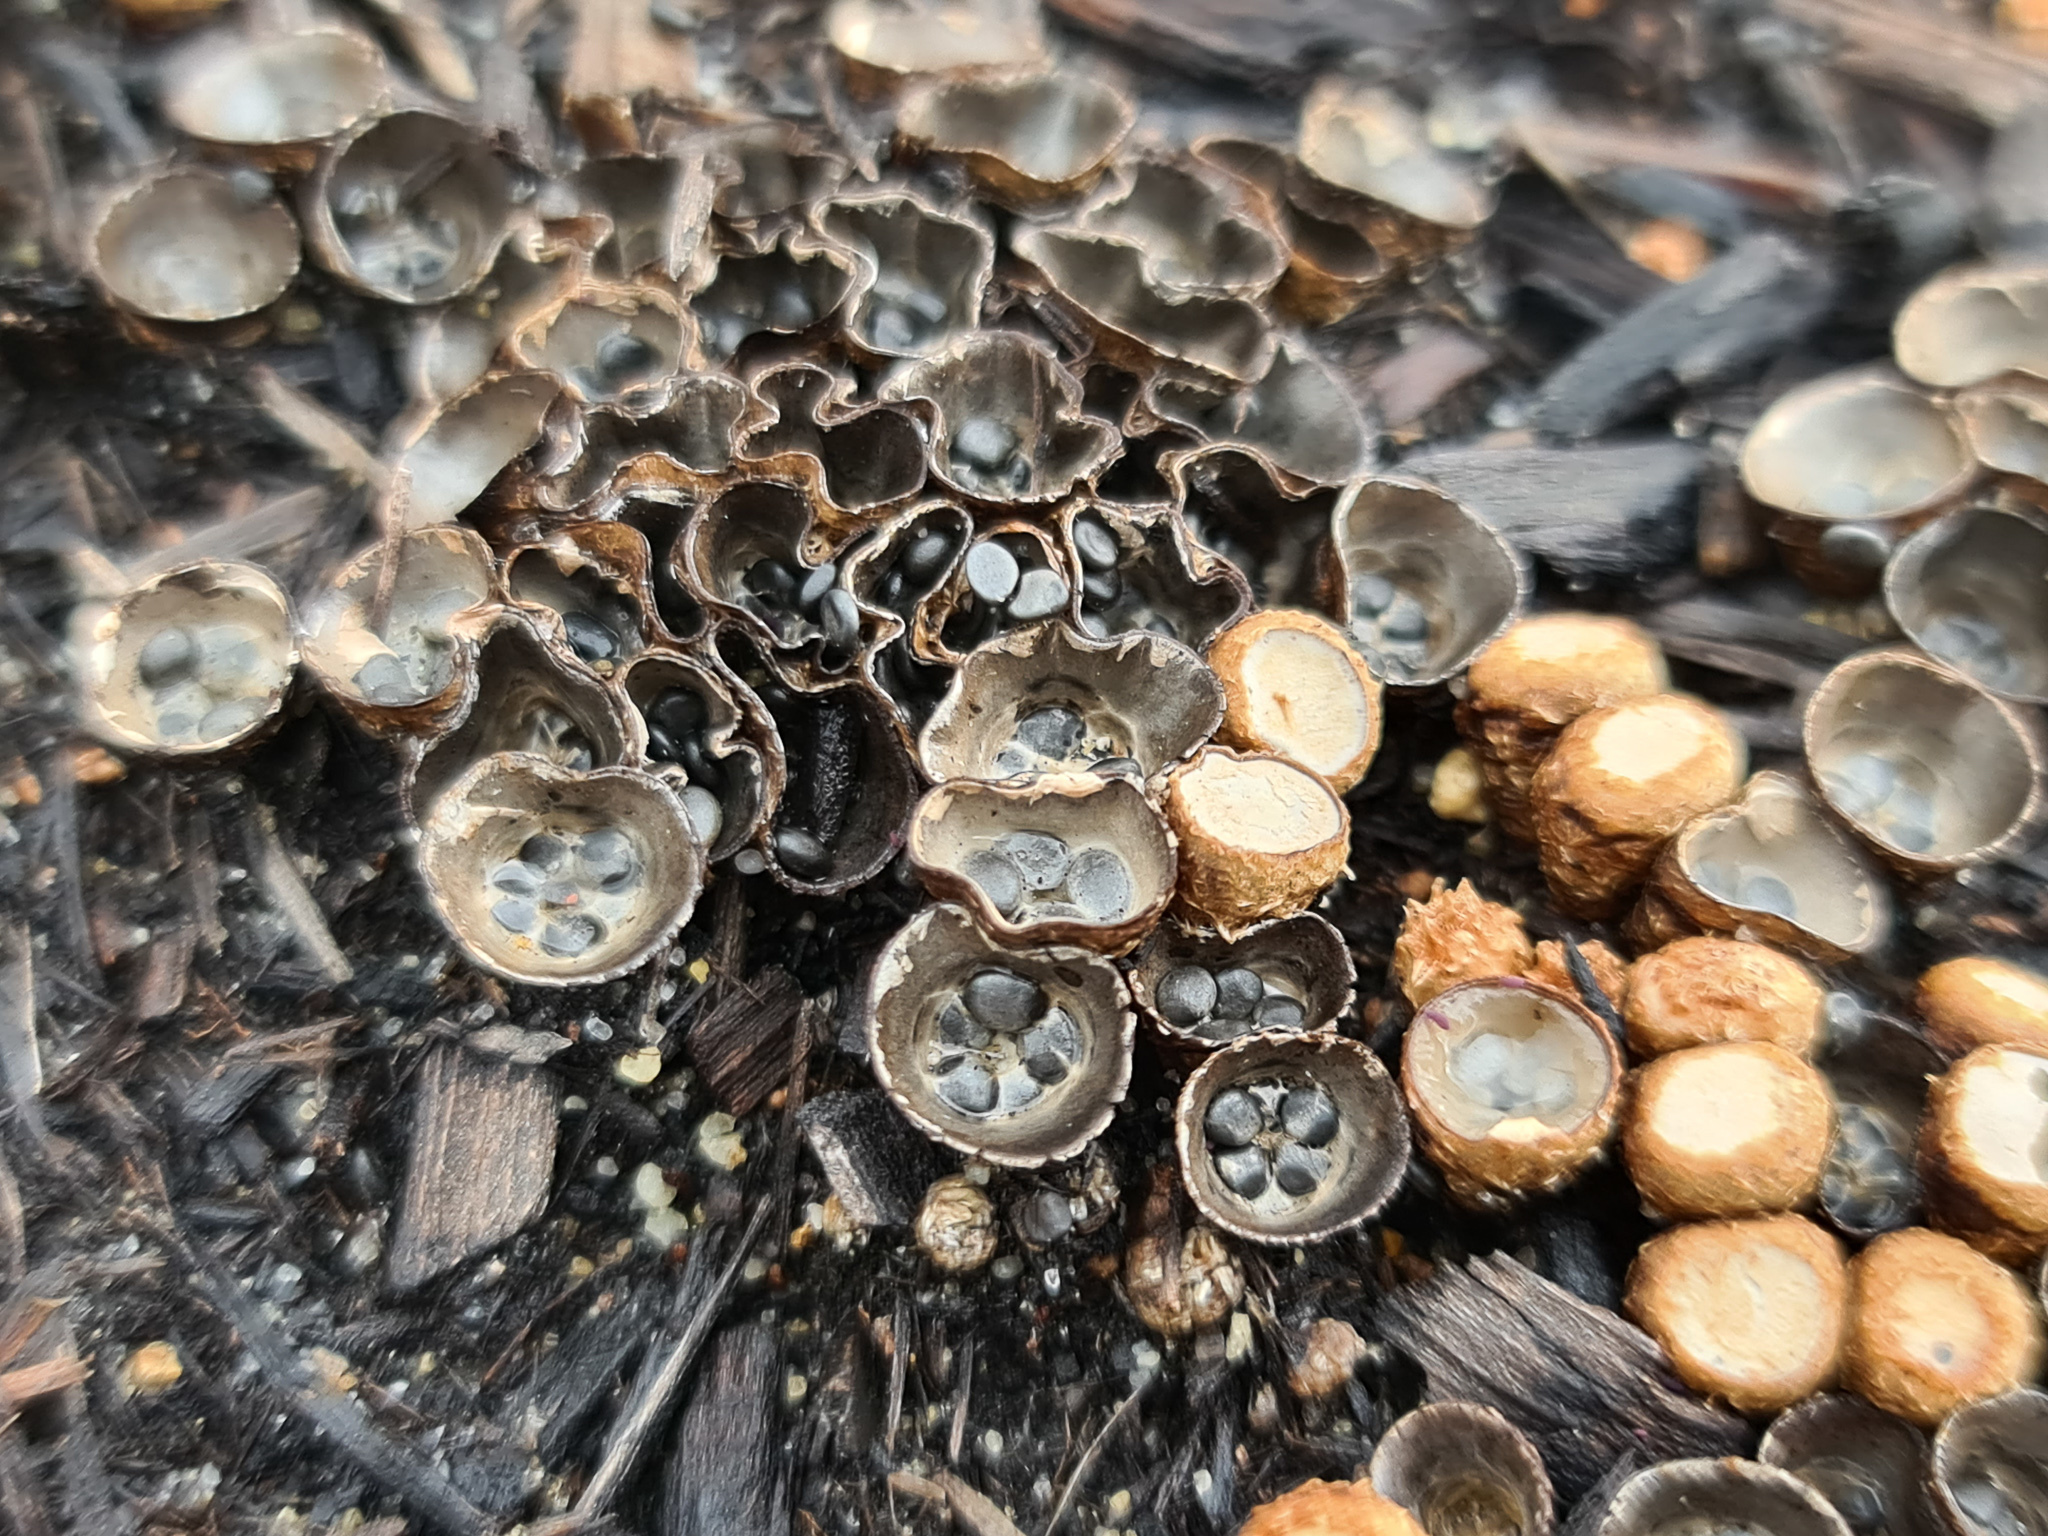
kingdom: Fungi
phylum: Basidiomycota
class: Agaricomycetes
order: Agaricales
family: Agaricaceae
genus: Cyathus
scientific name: Cyathus olla
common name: Field bird's nest
